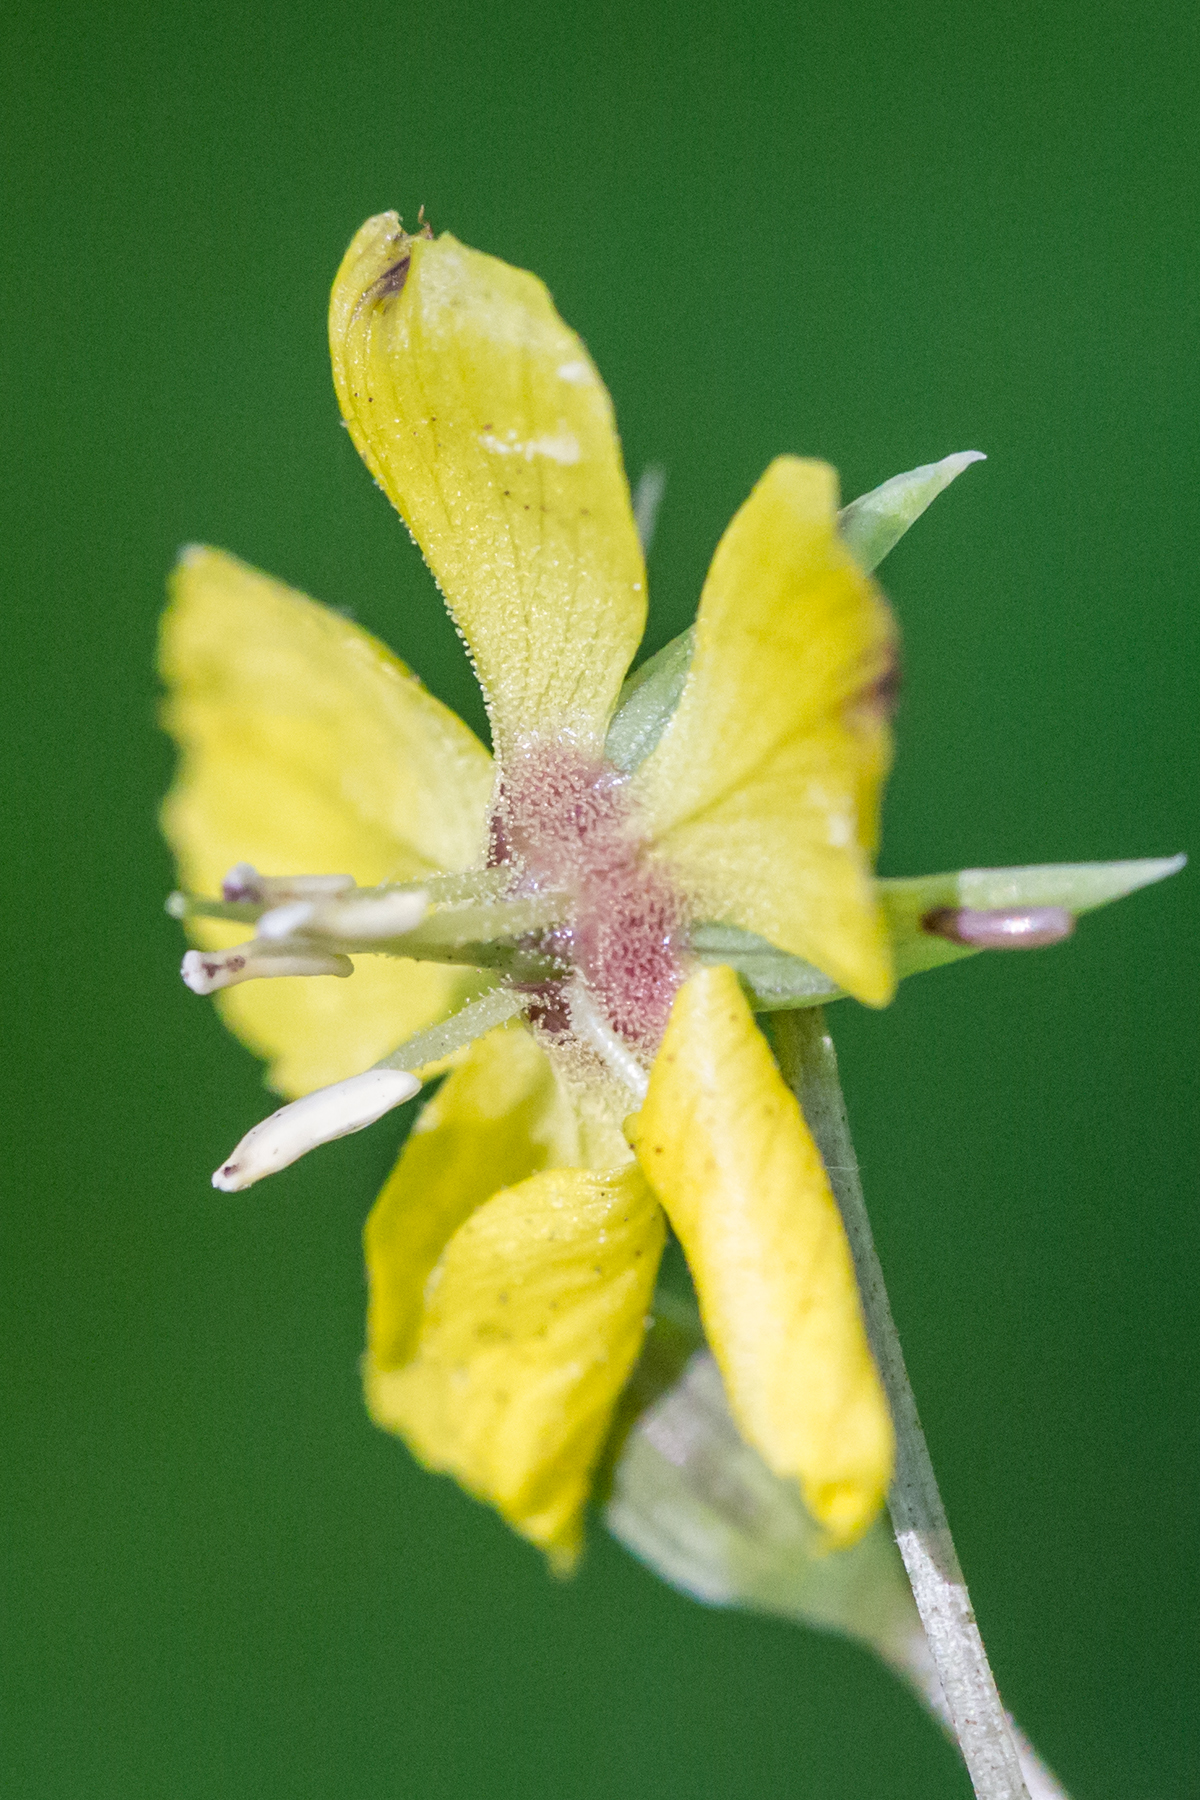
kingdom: Plantae
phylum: Tracheophyta
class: Magnoliopsida
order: Ericales
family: Primulaceae
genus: Lysimachia
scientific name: Lysimachia ciliata
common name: Fringed loosestrife
